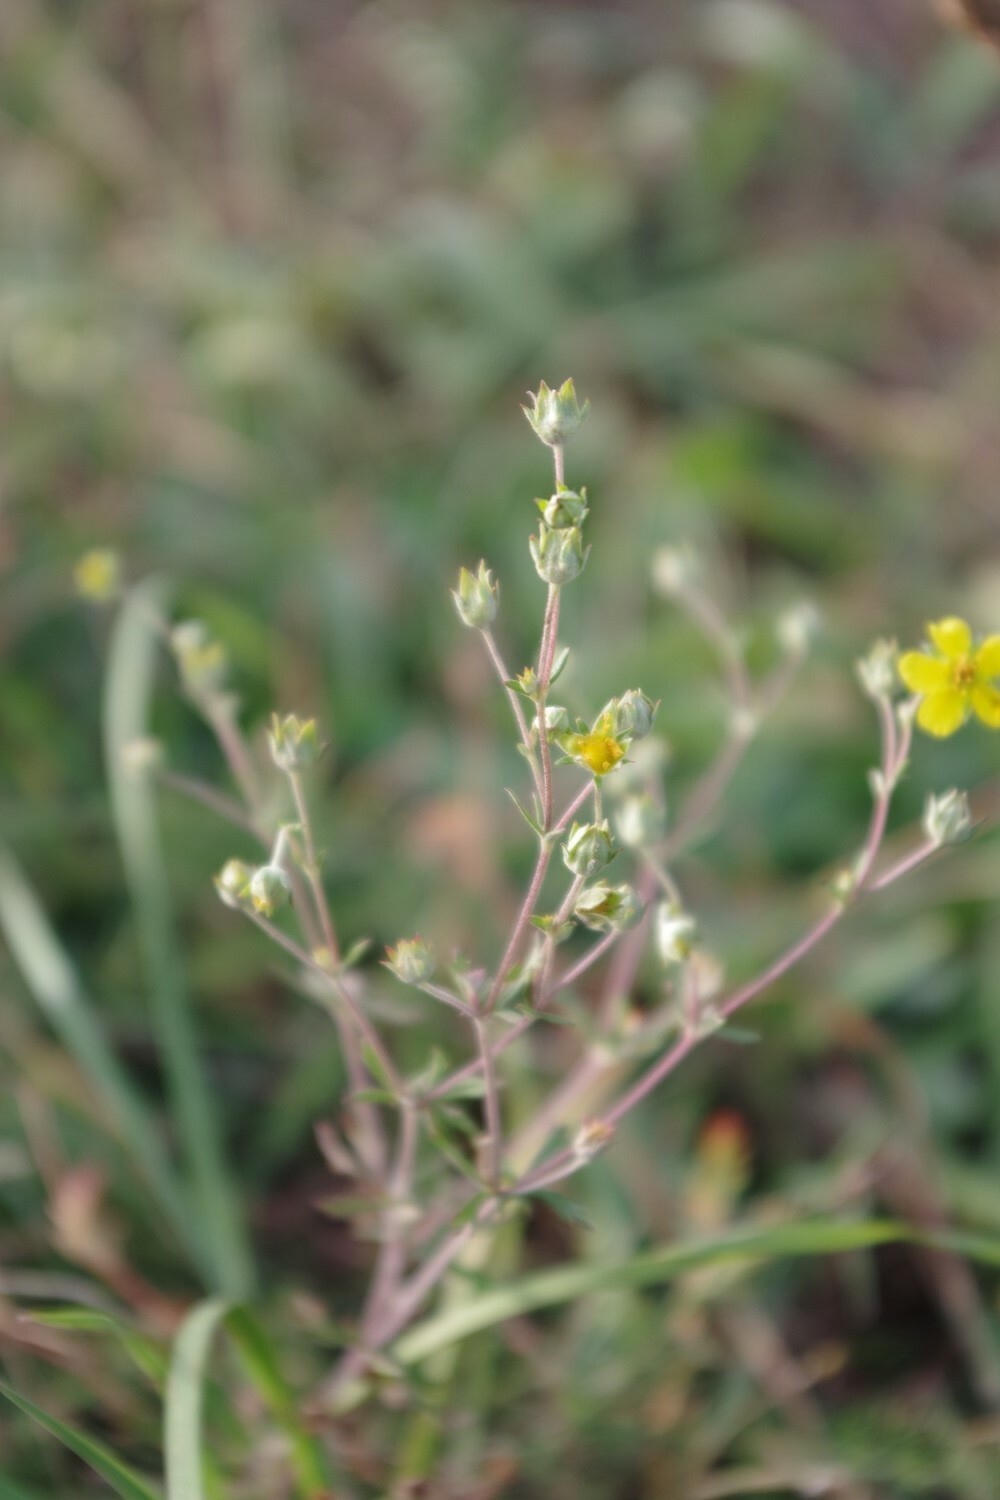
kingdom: Plantae
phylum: Tracheophyta
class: Magnoliopsida
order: Rosales
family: Rosaceae
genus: Potentilla
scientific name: Potentilla argentea
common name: Hoary cinquefoil
